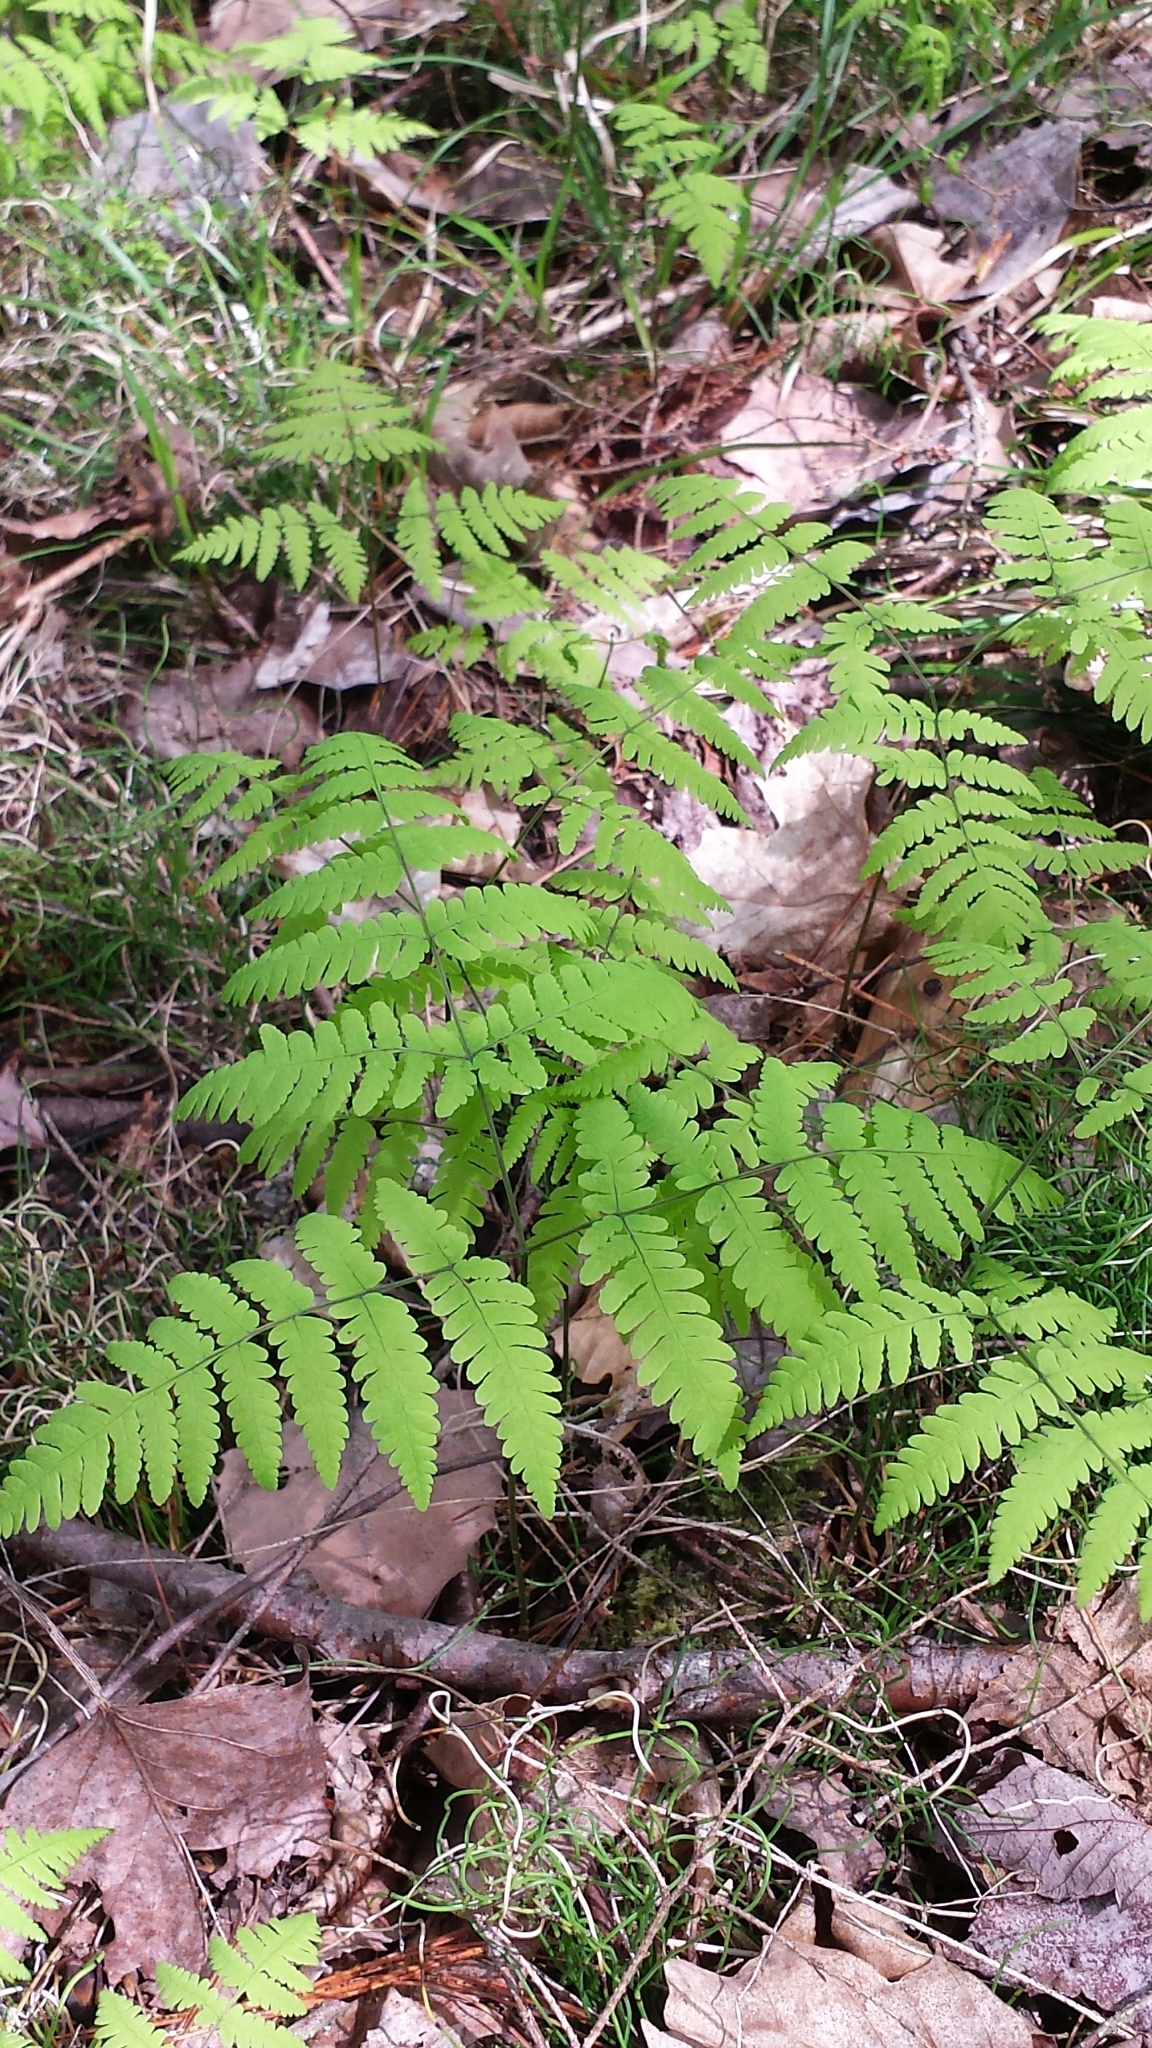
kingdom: Plantae
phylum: Tracheophyta
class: Polypodiopsida
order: Polypodiales
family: Cystopteridaceae
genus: Gymnocarpium
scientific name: Gymnocarpium dryopteris
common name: Oak fern
